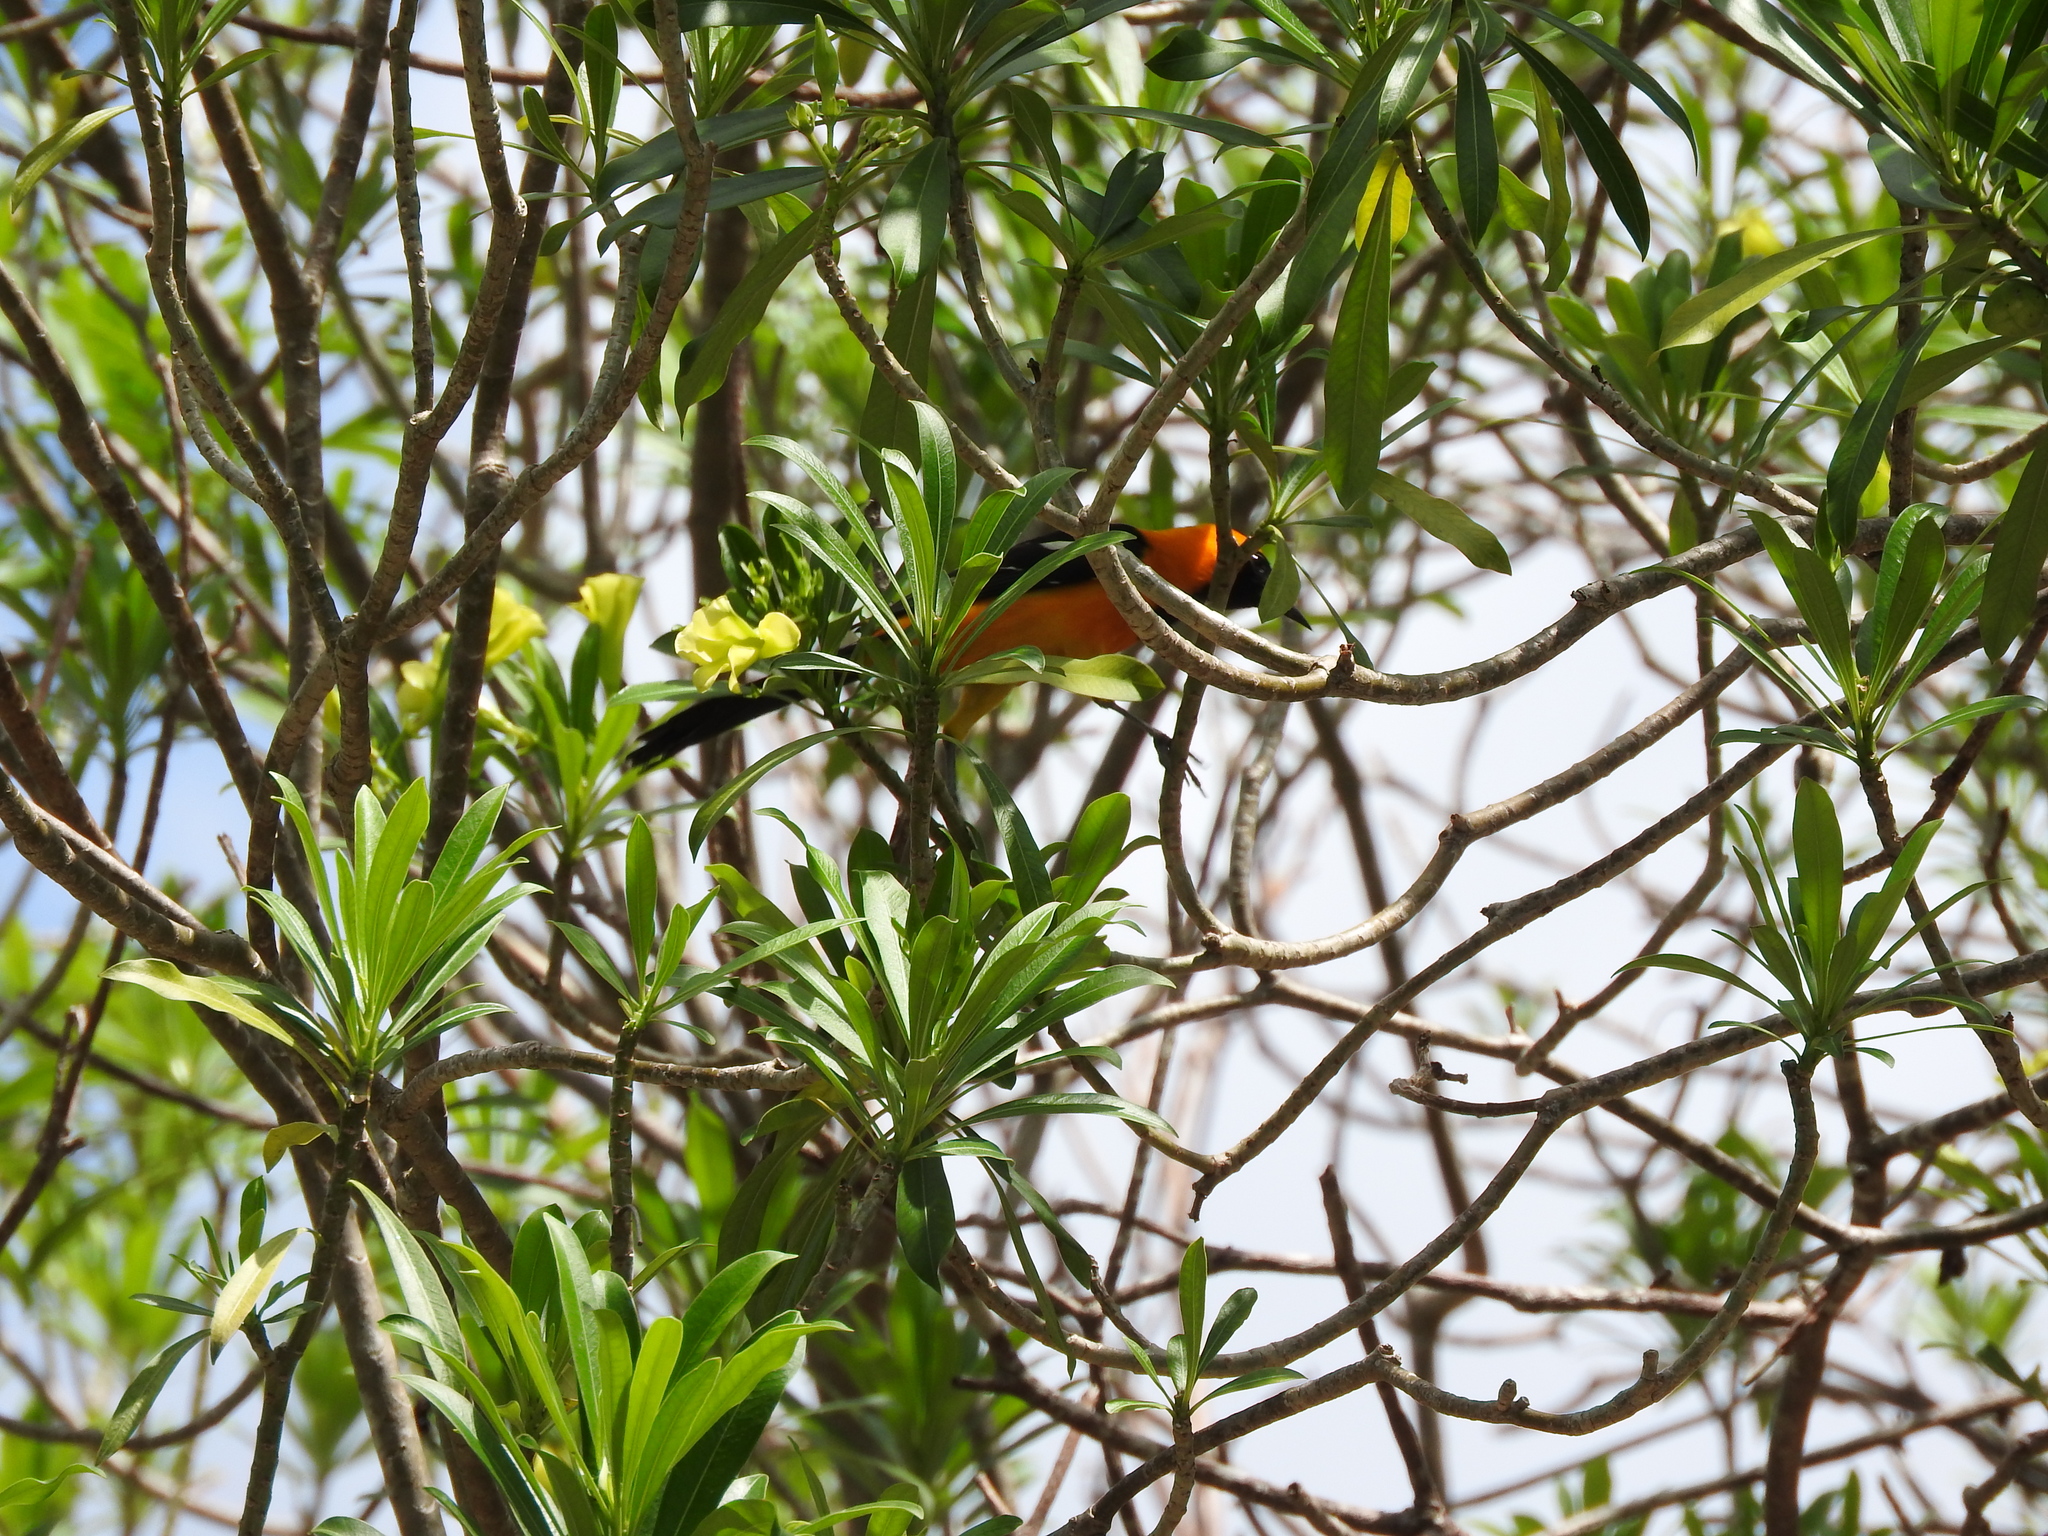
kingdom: Animalia
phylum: Chordata
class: Aves
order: Passeriformes
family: Icteridae
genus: Icterus
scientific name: Icterus auratus
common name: Orange oriole
